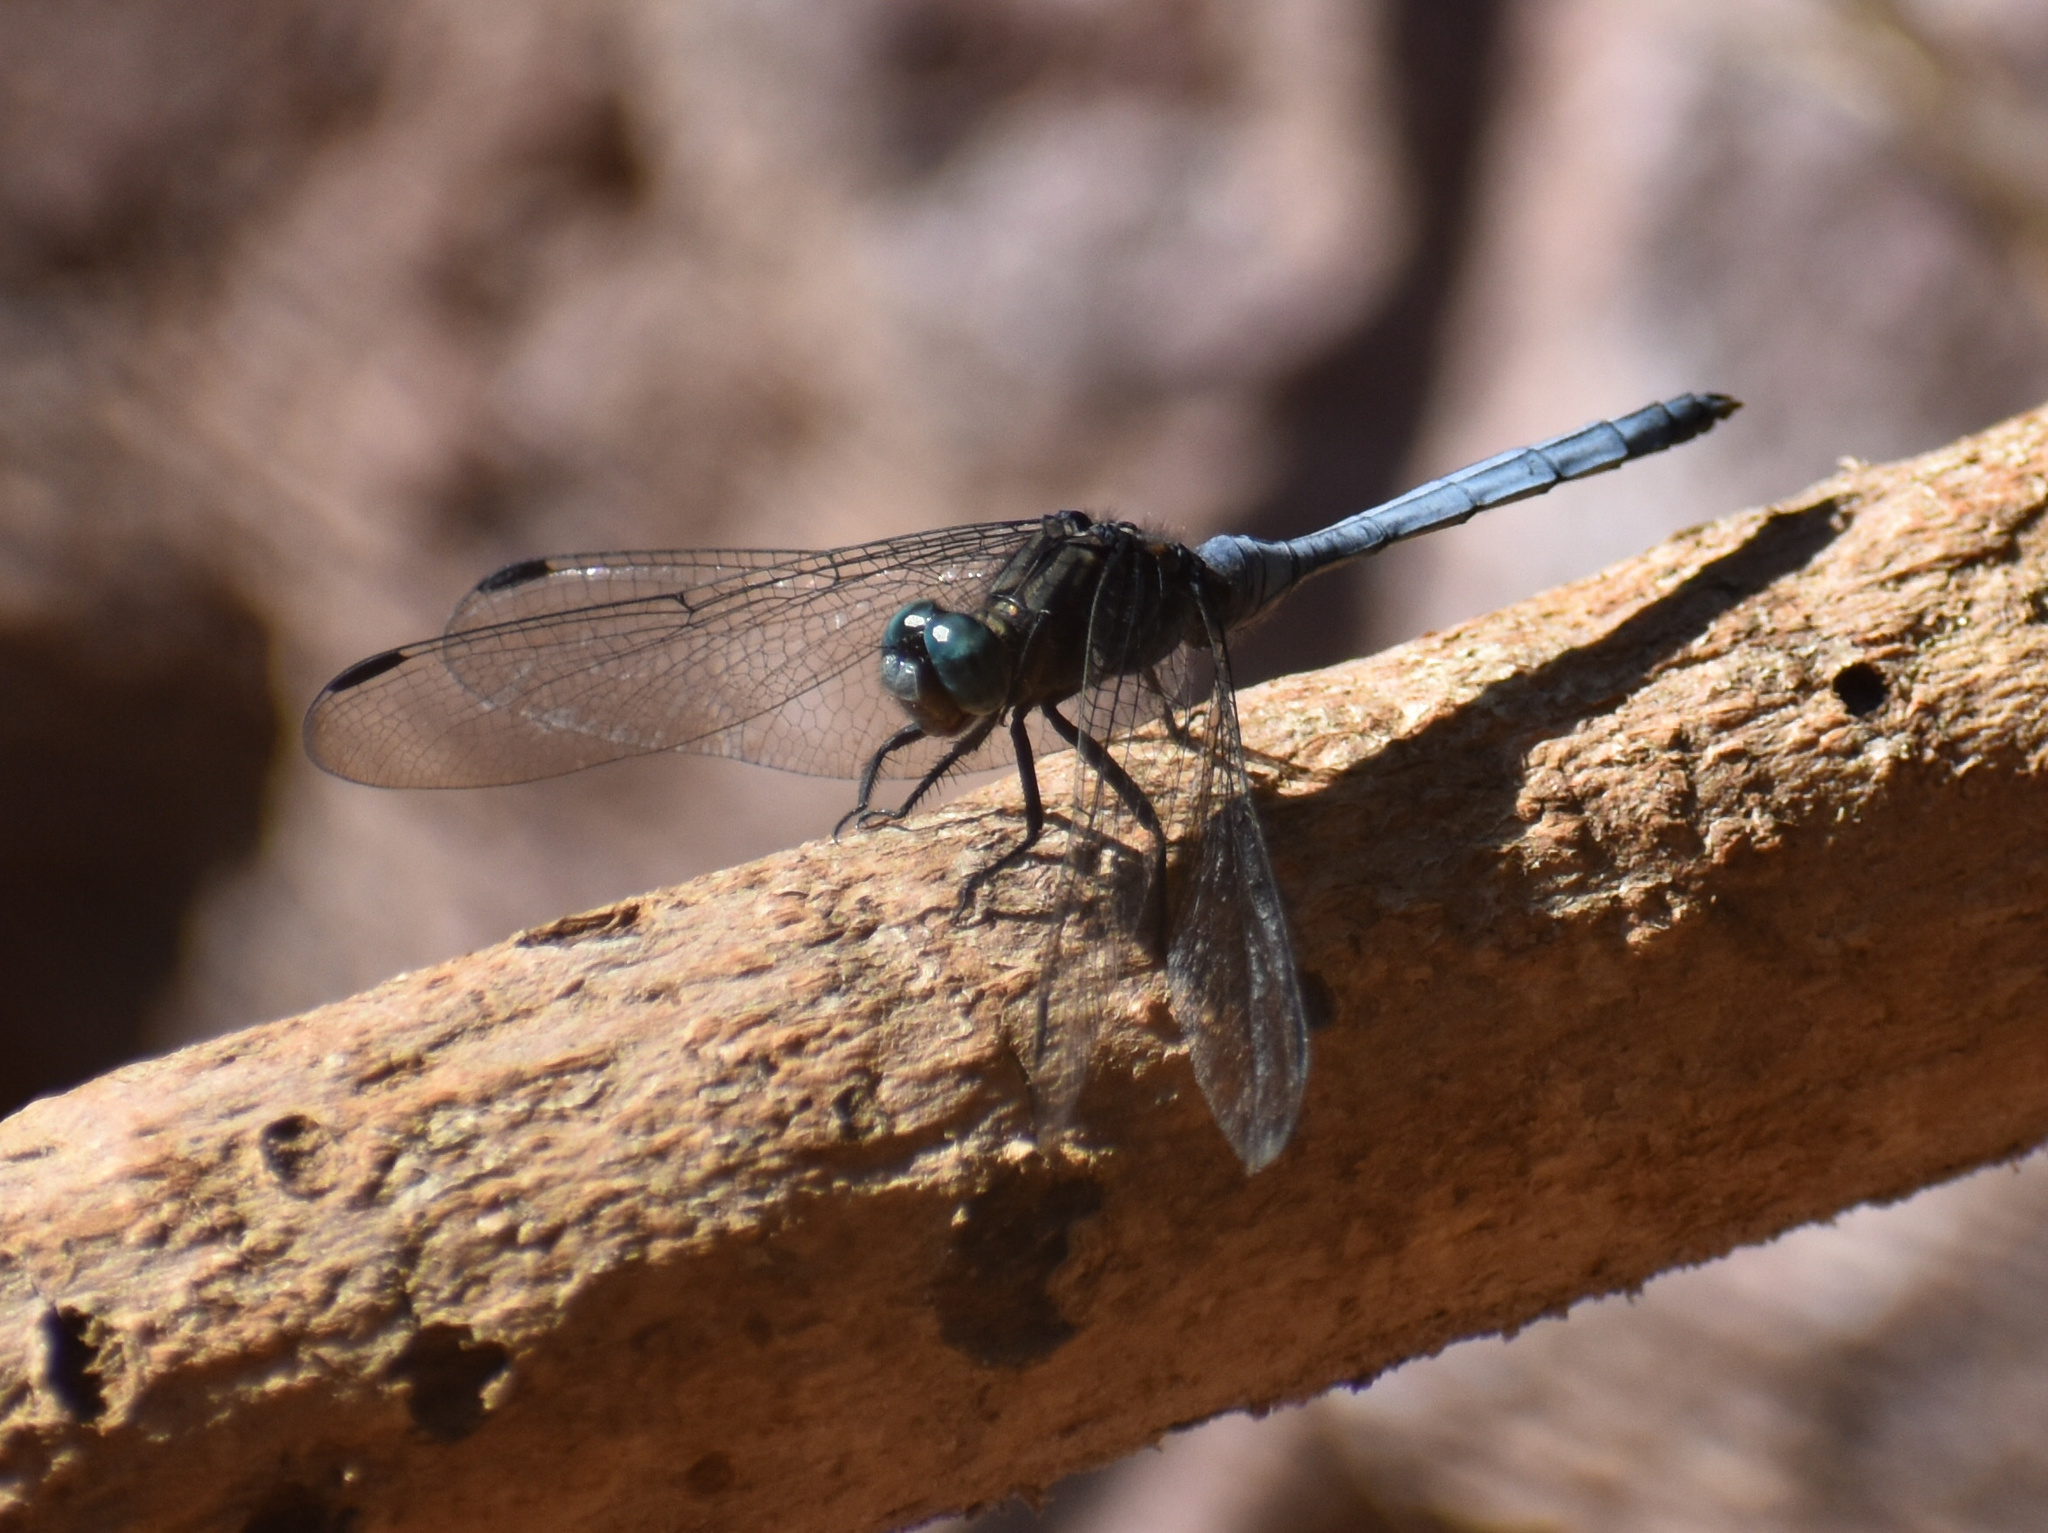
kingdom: Animalia
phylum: Arthropoda
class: Insecta
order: Odonata
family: Libellulidae
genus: Orthetrum
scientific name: Orthetrum julia
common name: Julia skimmer
